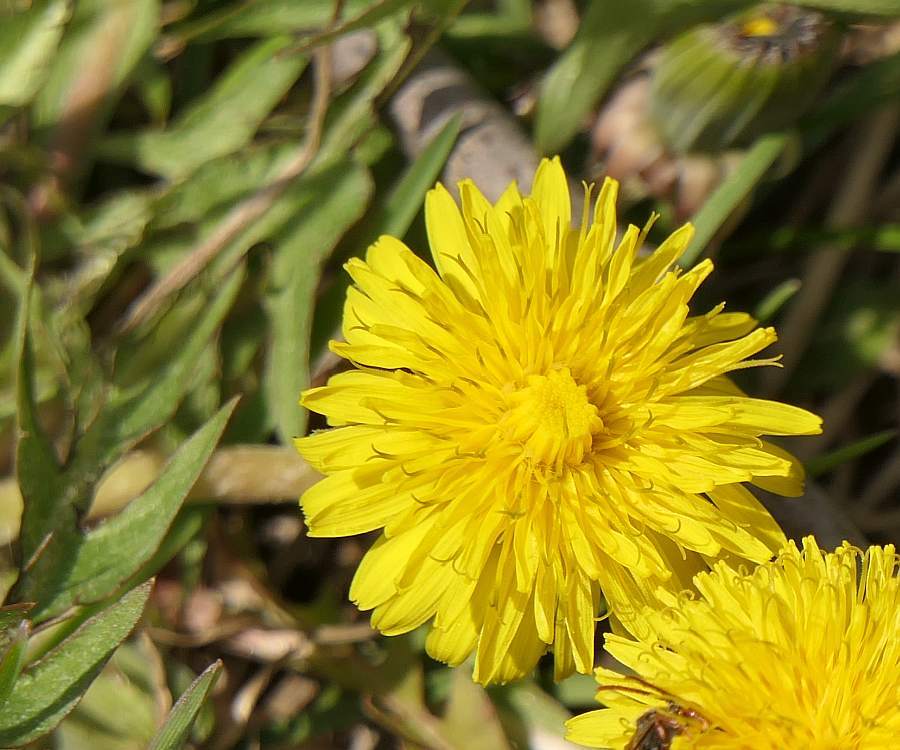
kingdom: Plantae
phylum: Tracheophyta
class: Magnoliopsida
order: Asterales
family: Asteraceae
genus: Taraxacum
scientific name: Taraxacum officinale
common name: Common dandelion
